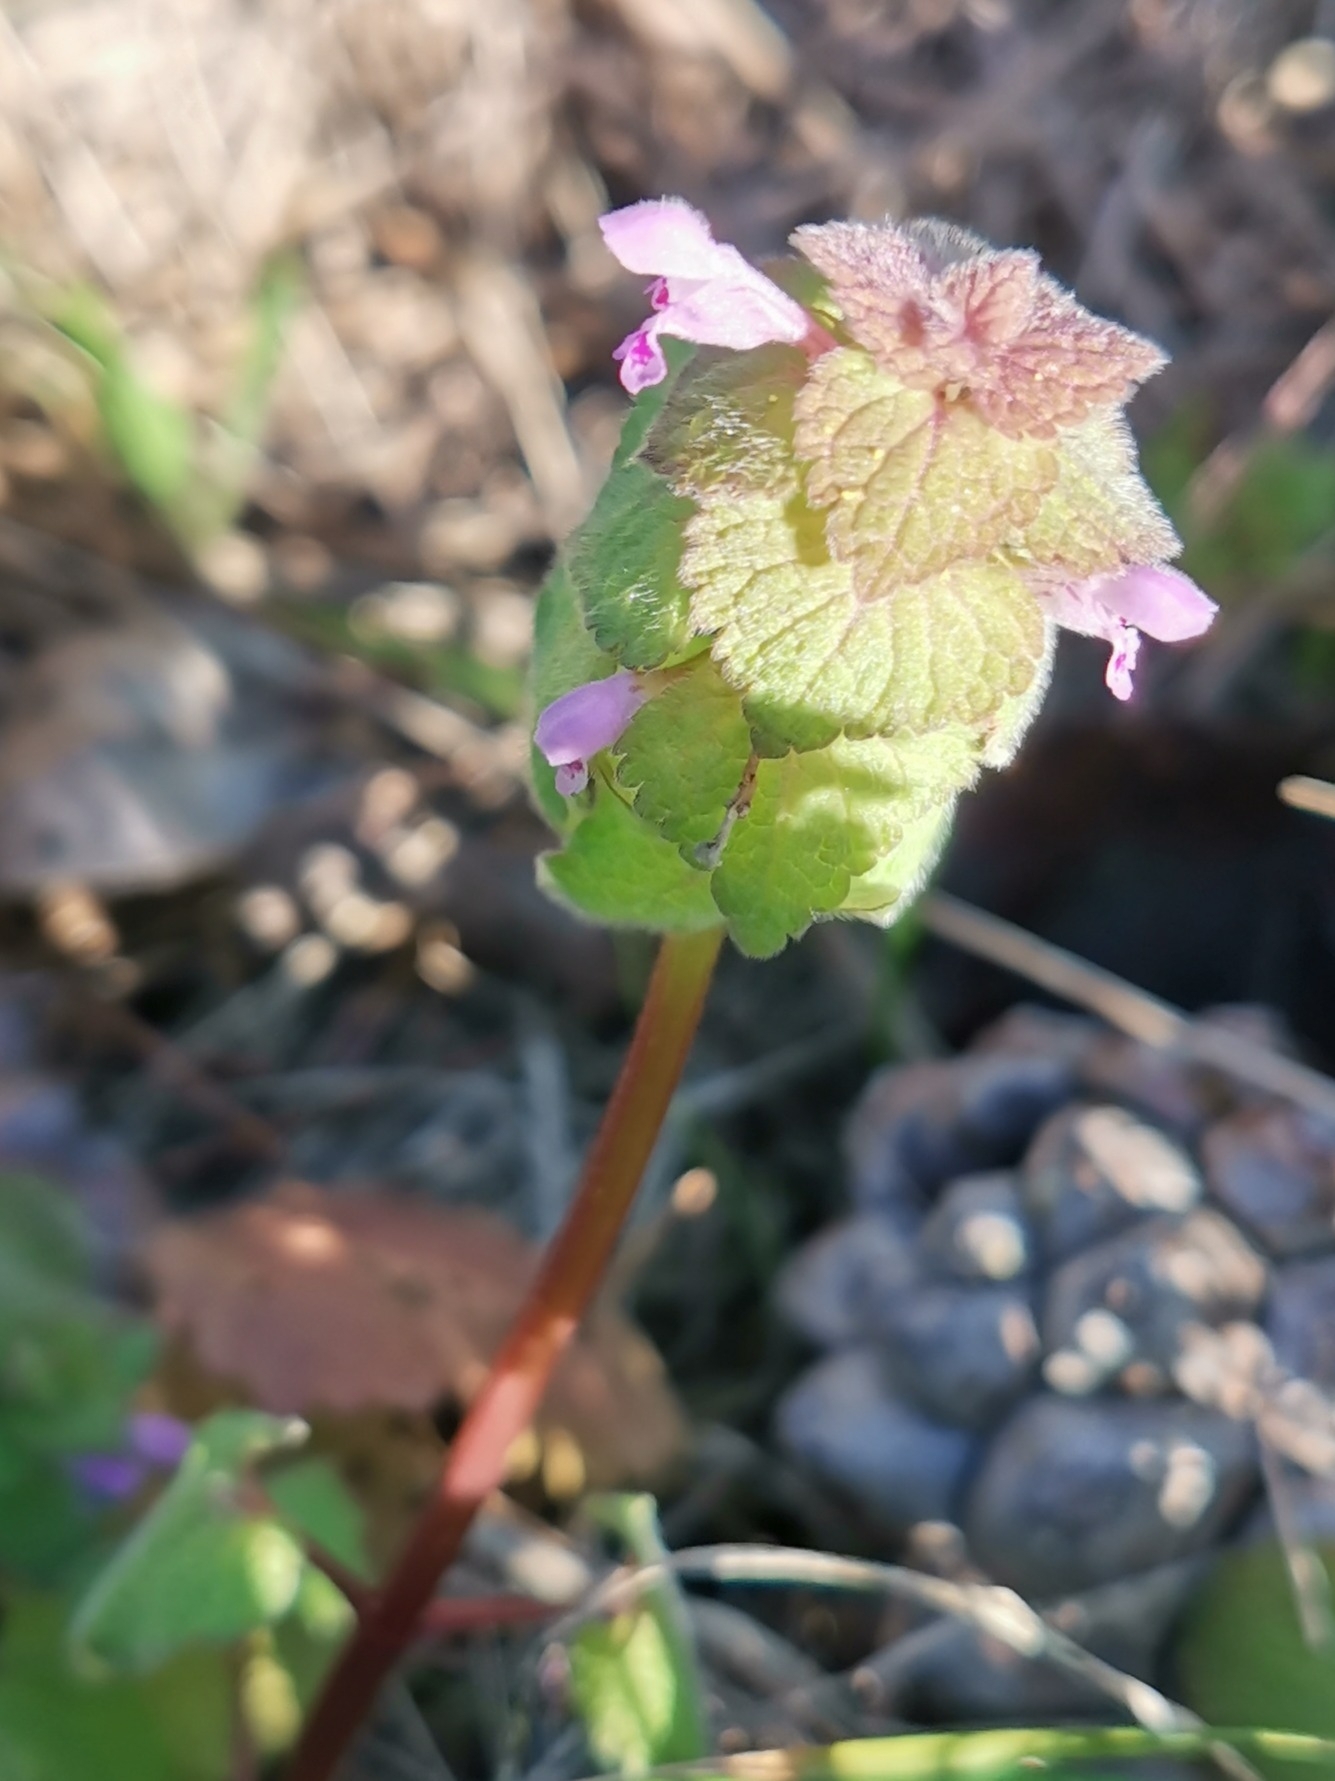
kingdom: Plantae
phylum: Tracheophyta
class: Magnoliopsida
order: Lamiales
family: Lamiaceae
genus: Lamium
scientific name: Lamium purpureum
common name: Red dead-nettle
